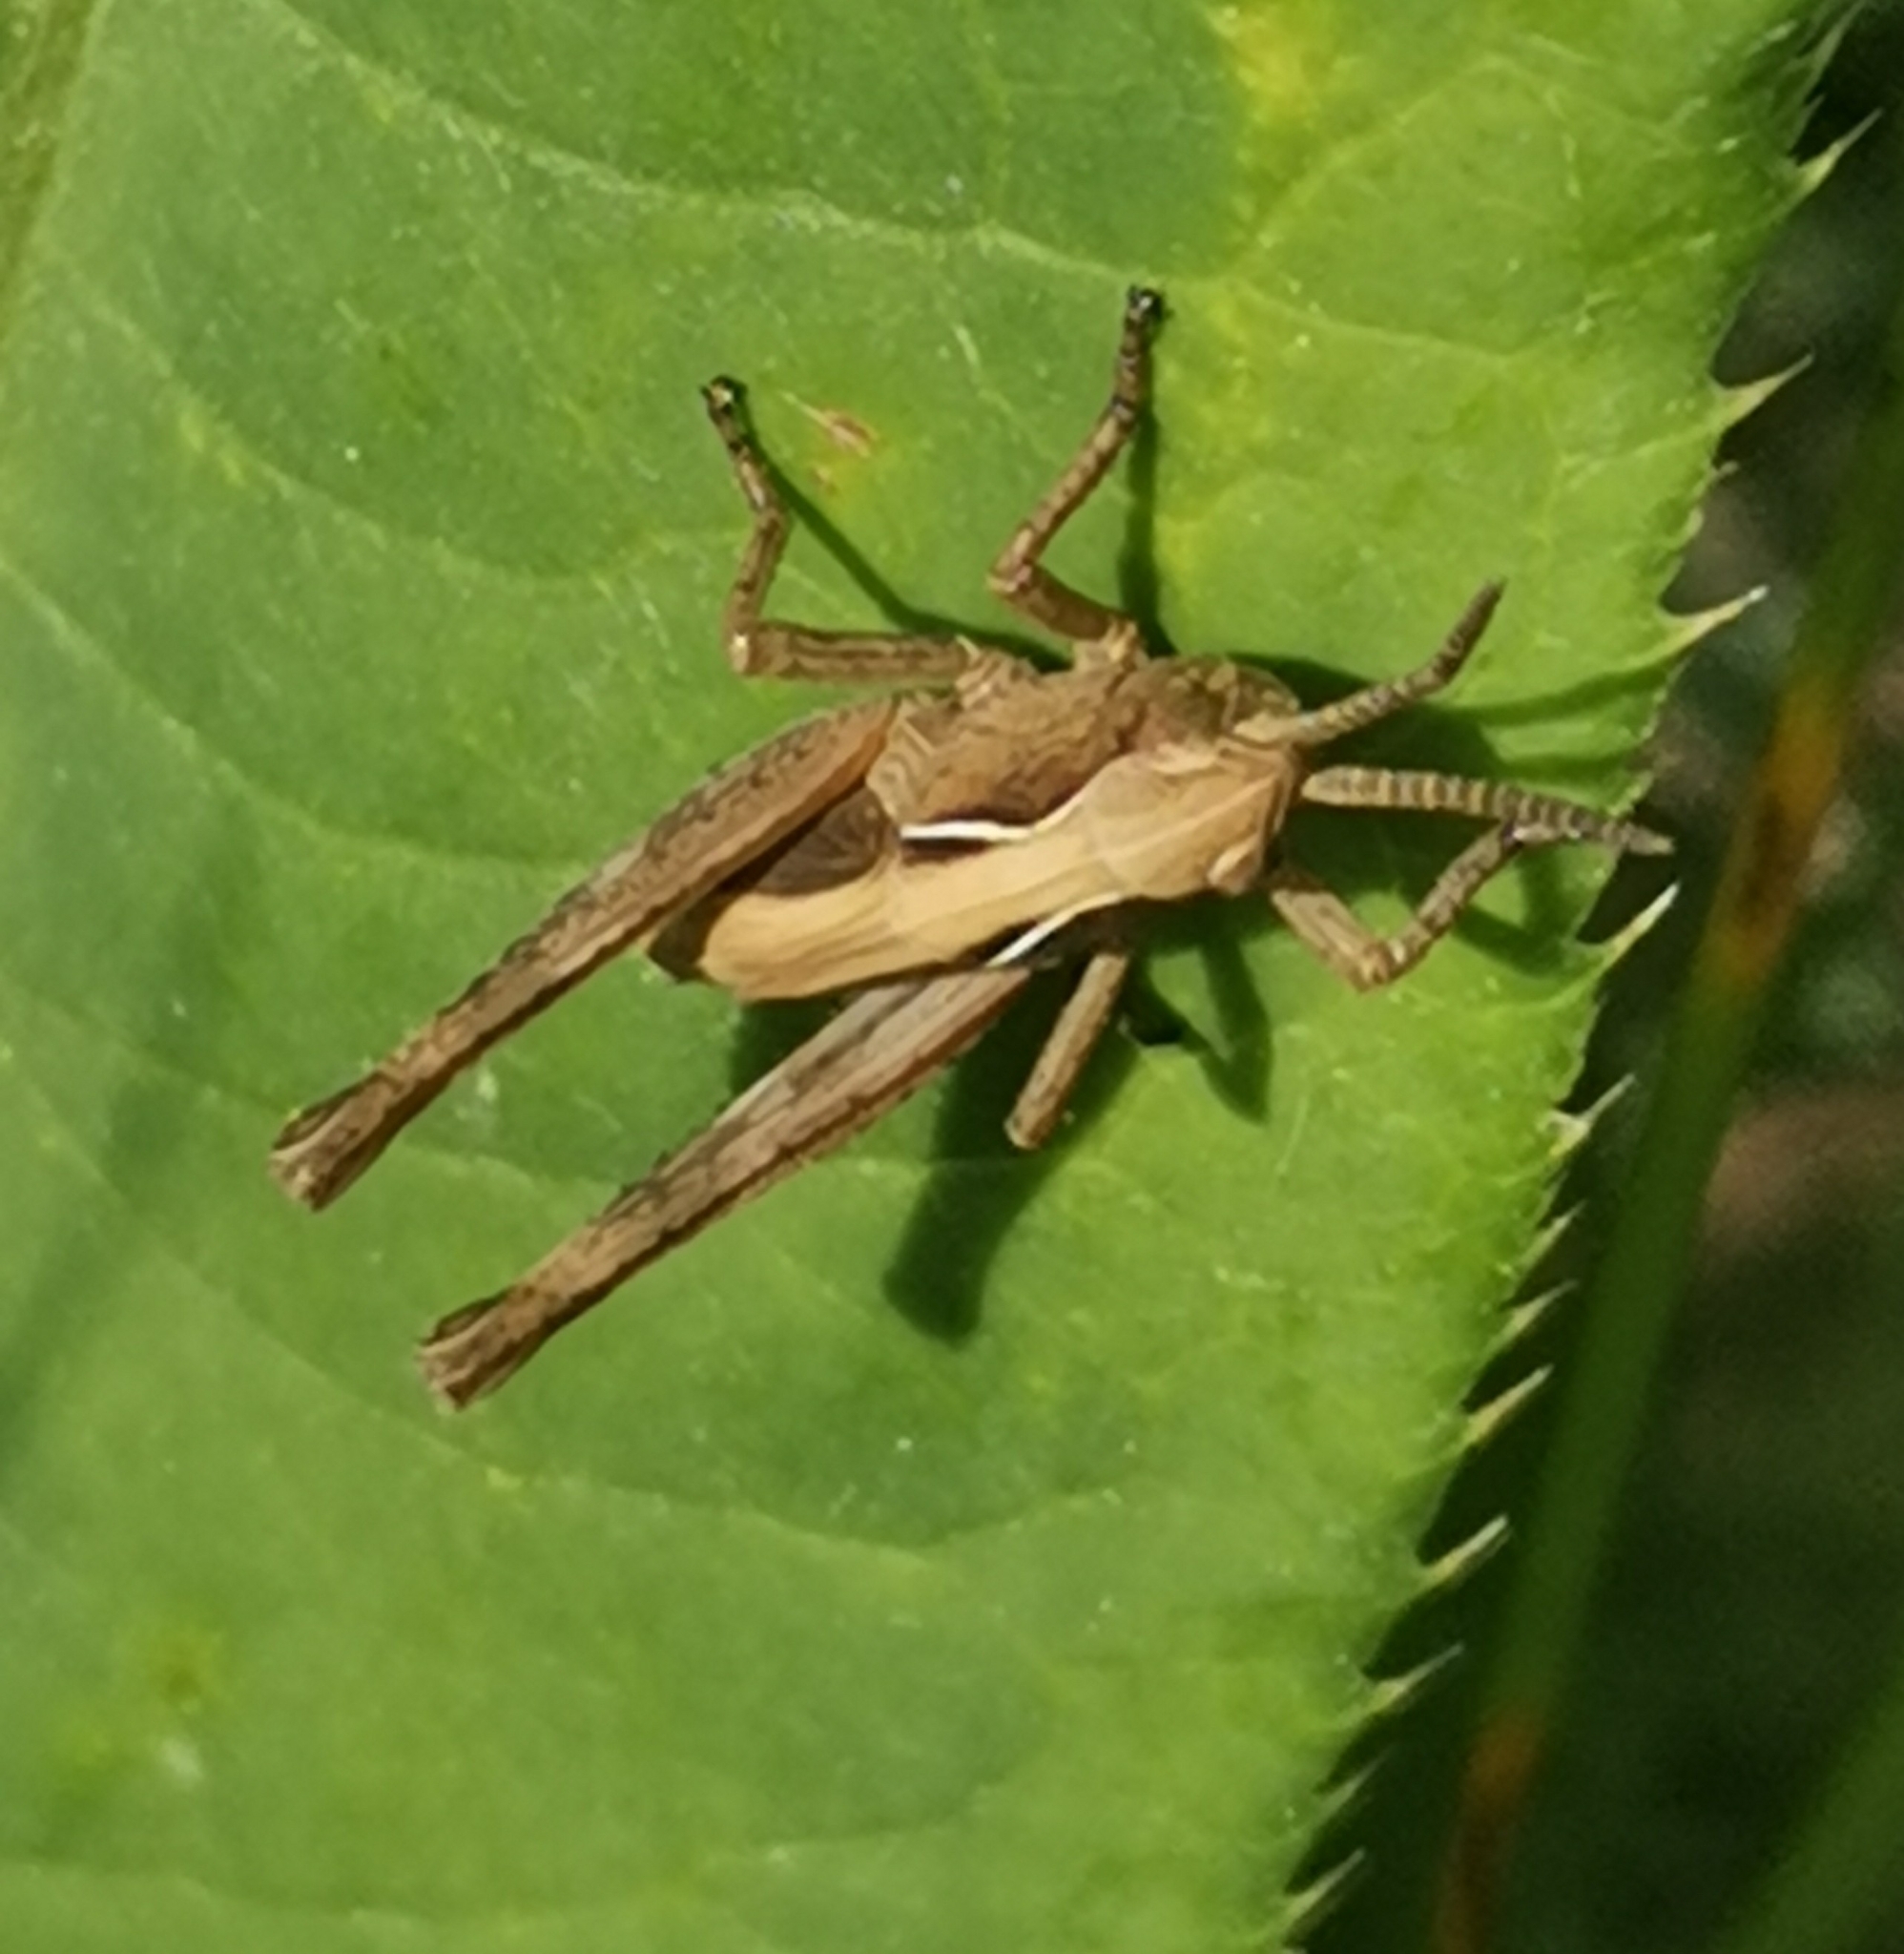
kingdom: Animalia
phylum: Arthropoda
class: Insecta
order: Orthoptera
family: Acrididae
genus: Omocestus
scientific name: Omocestus viridulus
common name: Common green grasshopper
